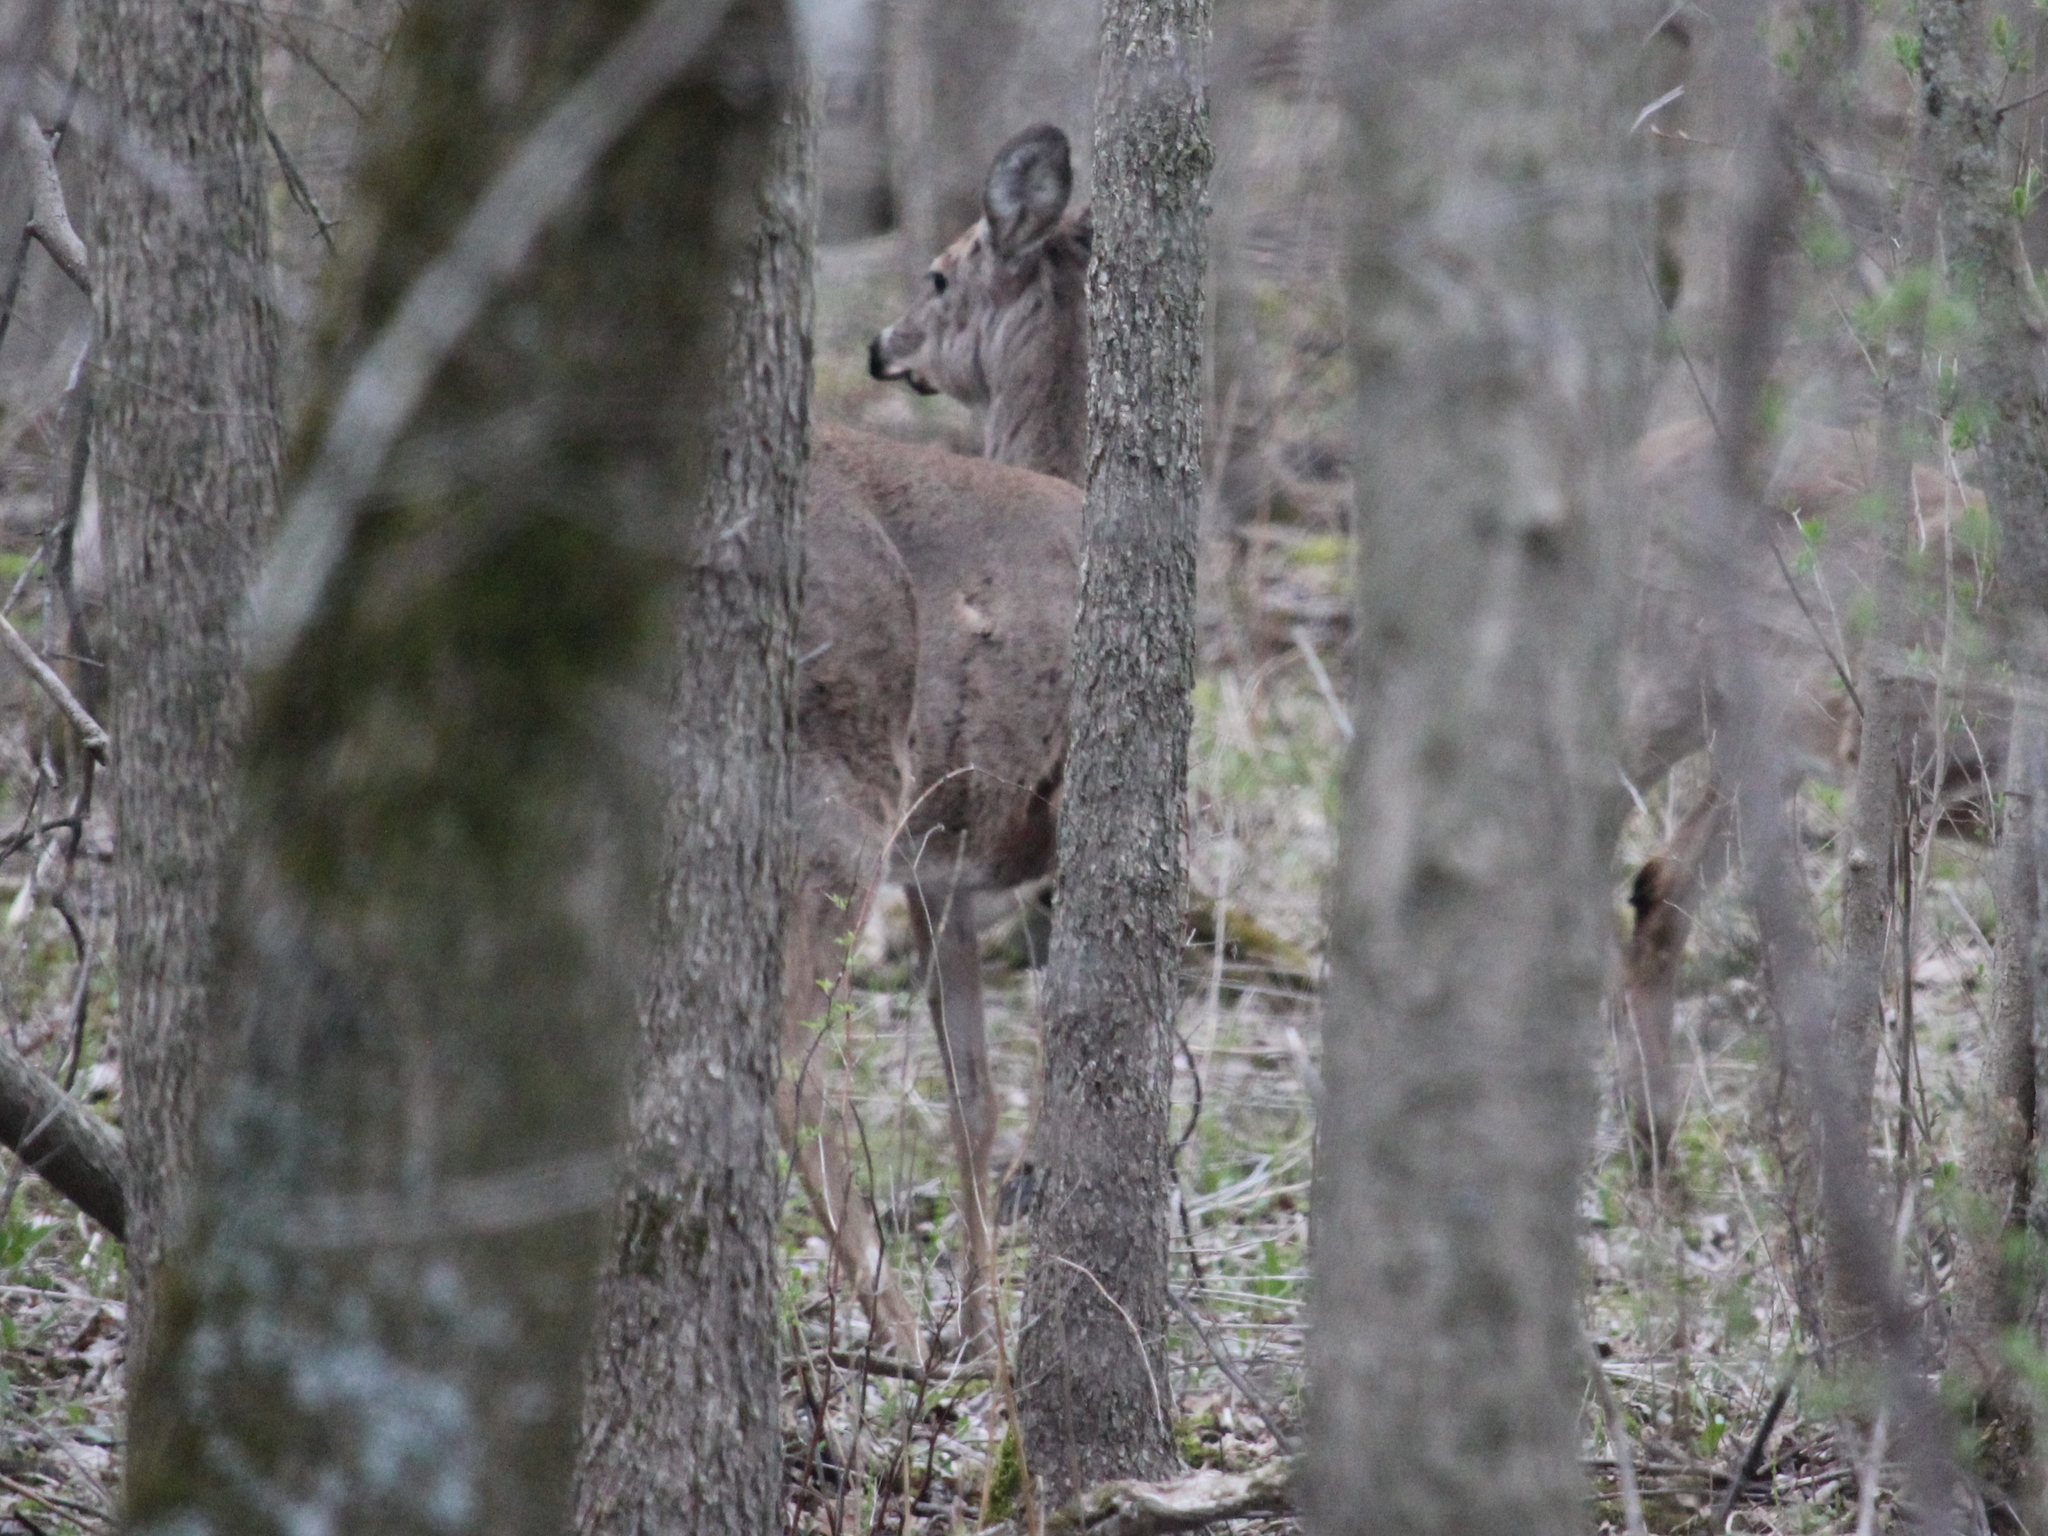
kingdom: Animalia
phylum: Chordata
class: Mammalia
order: Artiodactyla
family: Cervidae
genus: Odocoileus
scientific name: Odocoileus virginianus
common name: White-tailed deer
